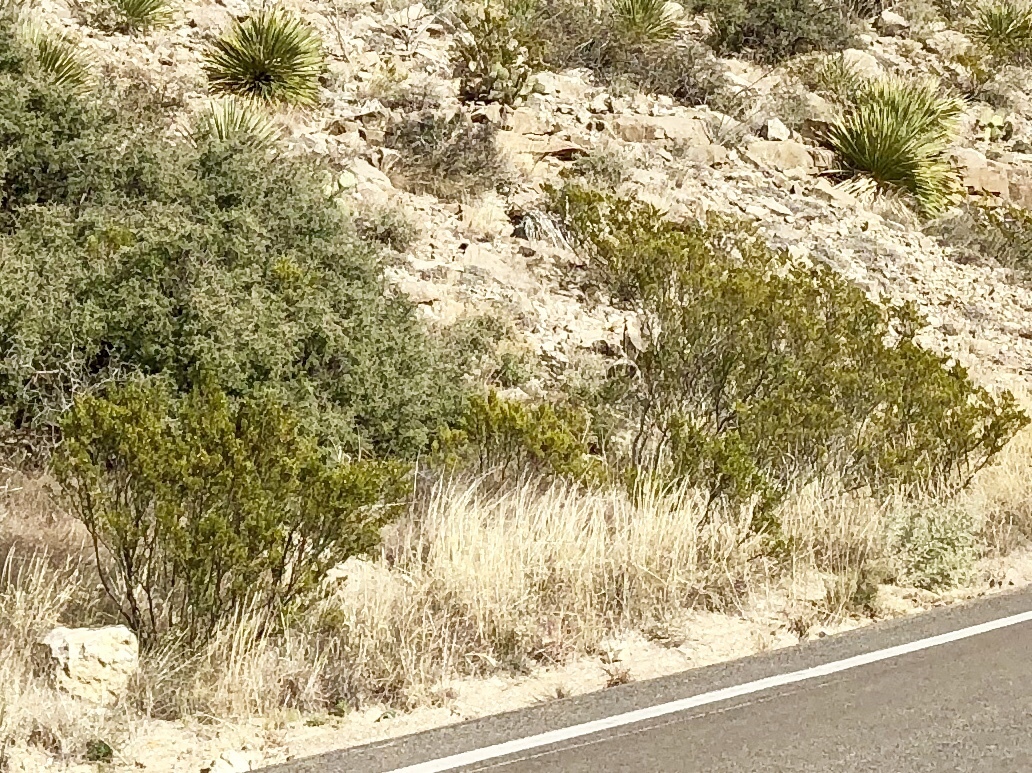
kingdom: Plantae
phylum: Tracheophyta
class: Magnoliopsida
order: Zygophyllales
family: Zygophyllaceae
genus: Larrea
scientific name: Larrea tridentata
